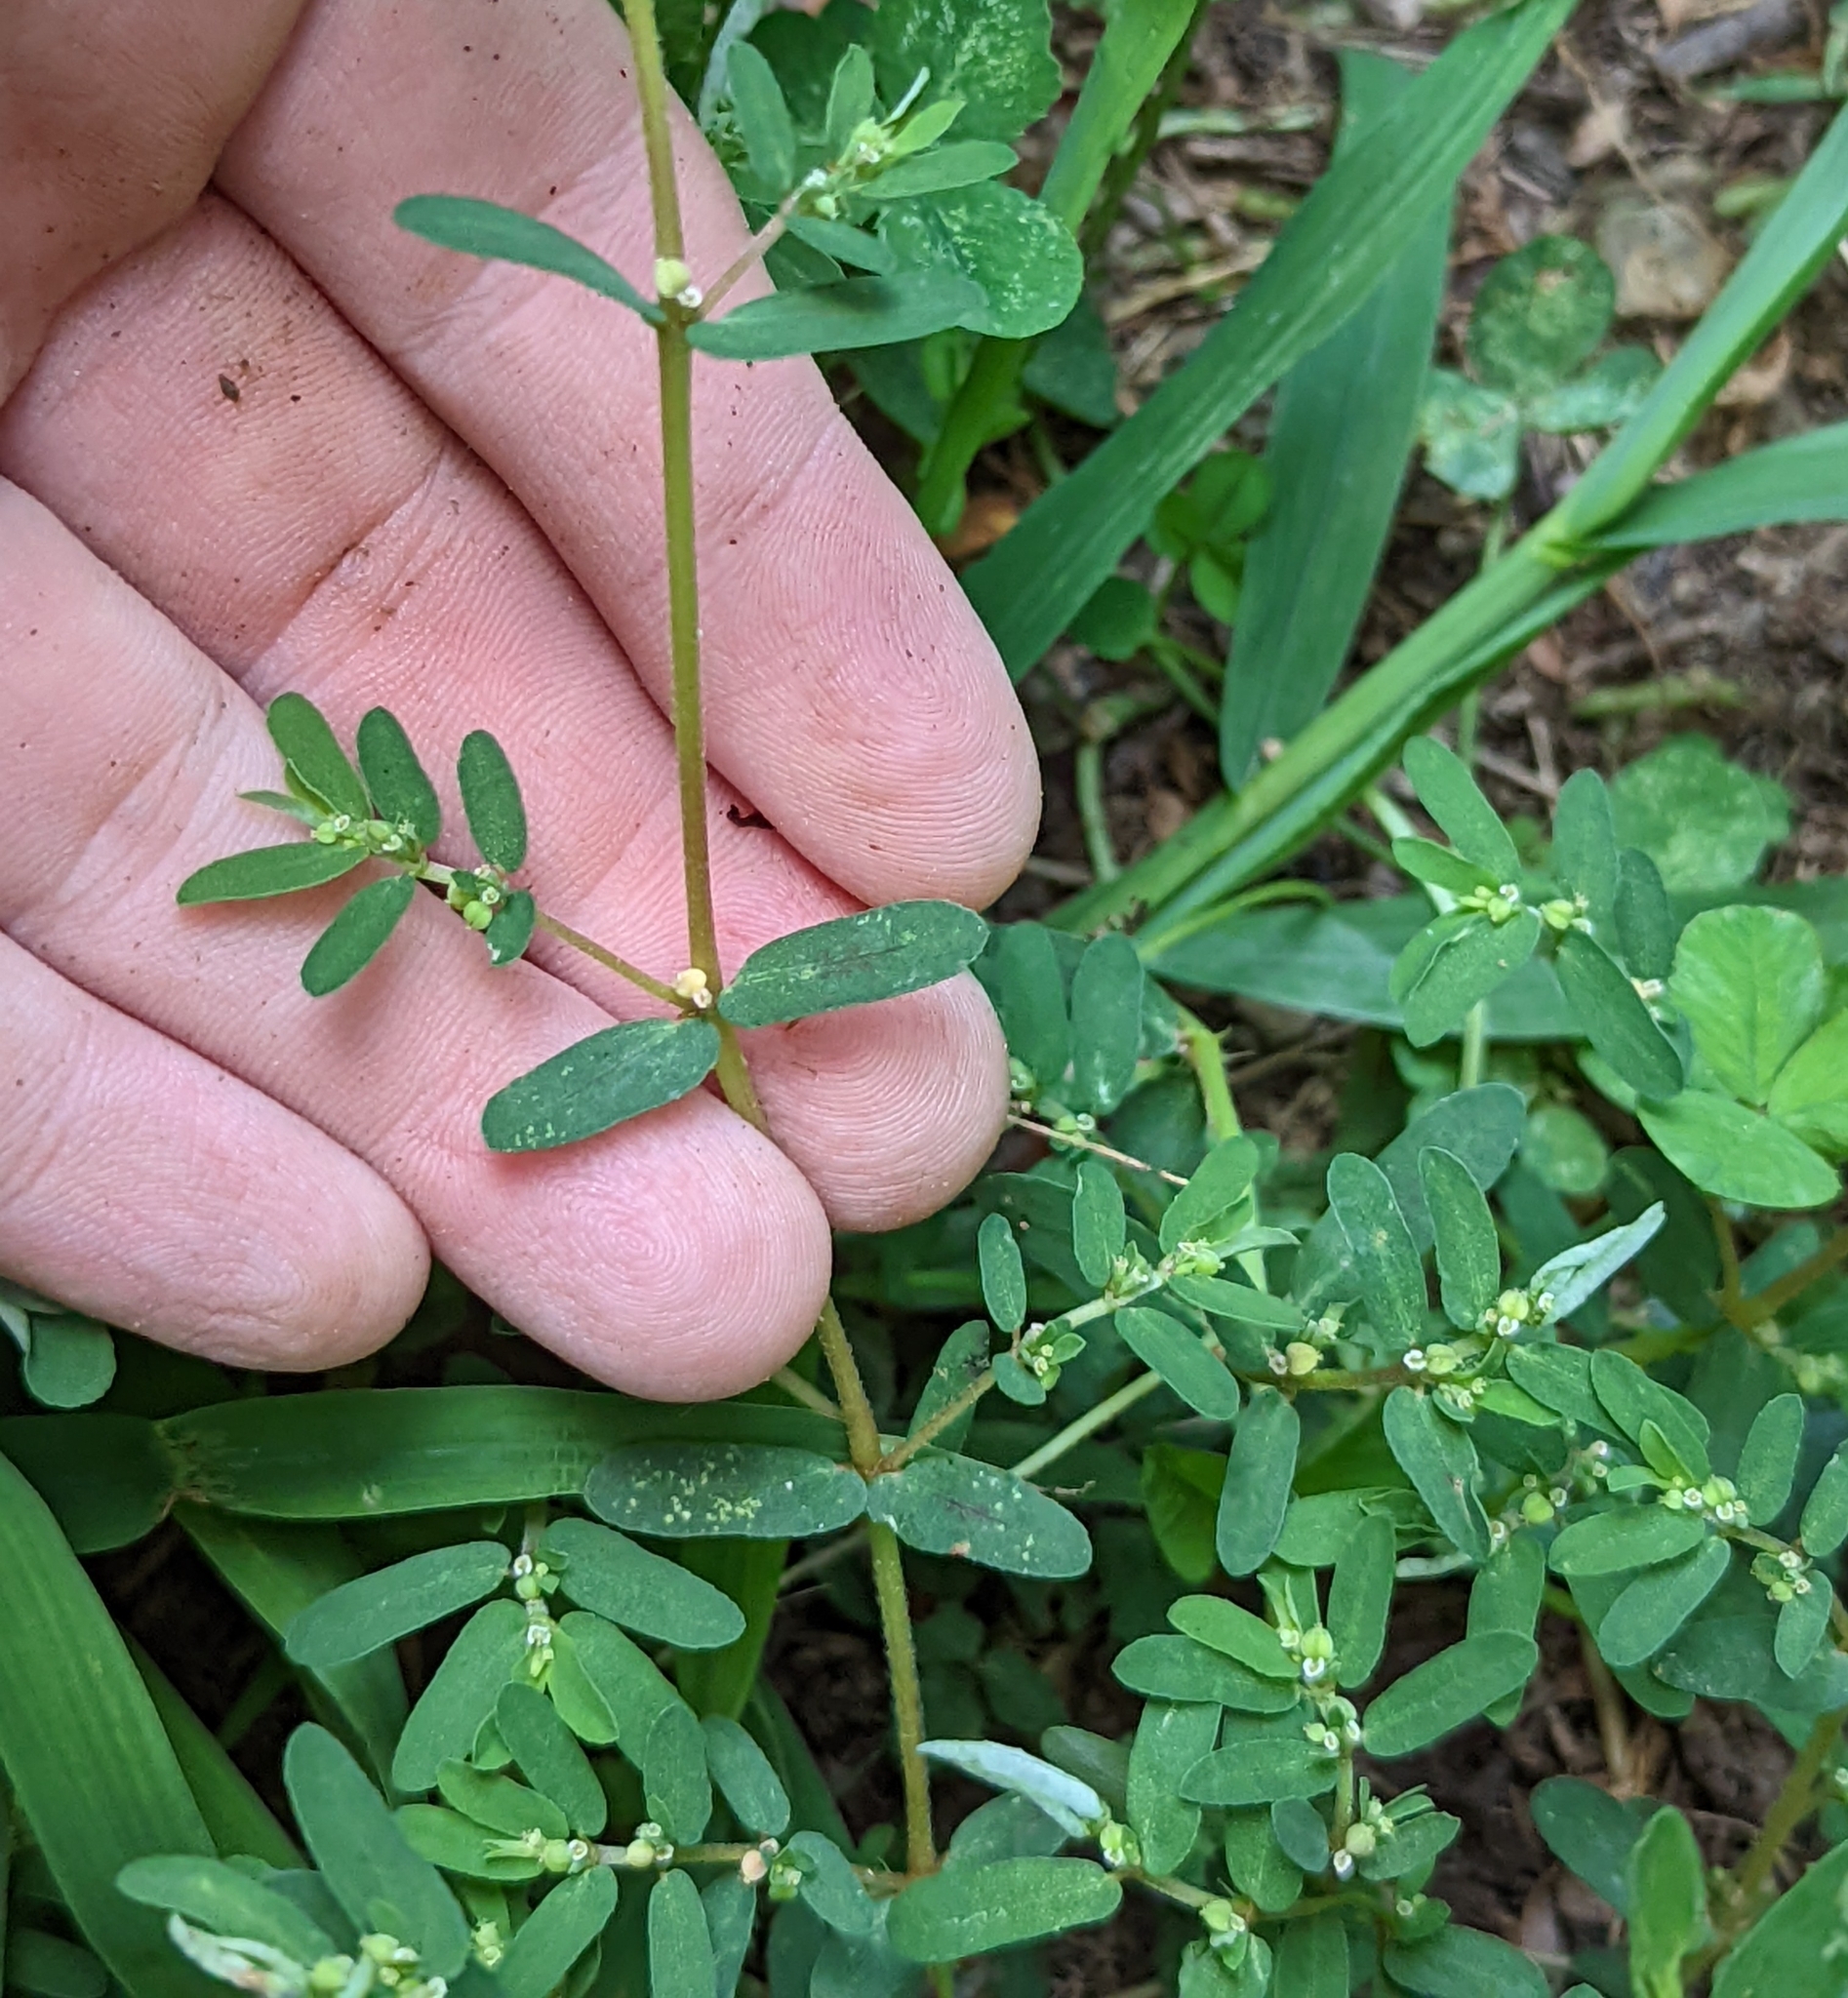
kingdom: Plantae
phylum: Tracheophyta
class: Magnoliopsida
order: Malpighiales
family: Euphorbiaceae
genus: Euphorbia
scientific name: Euphorbia maculata
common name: Spotted spurge
